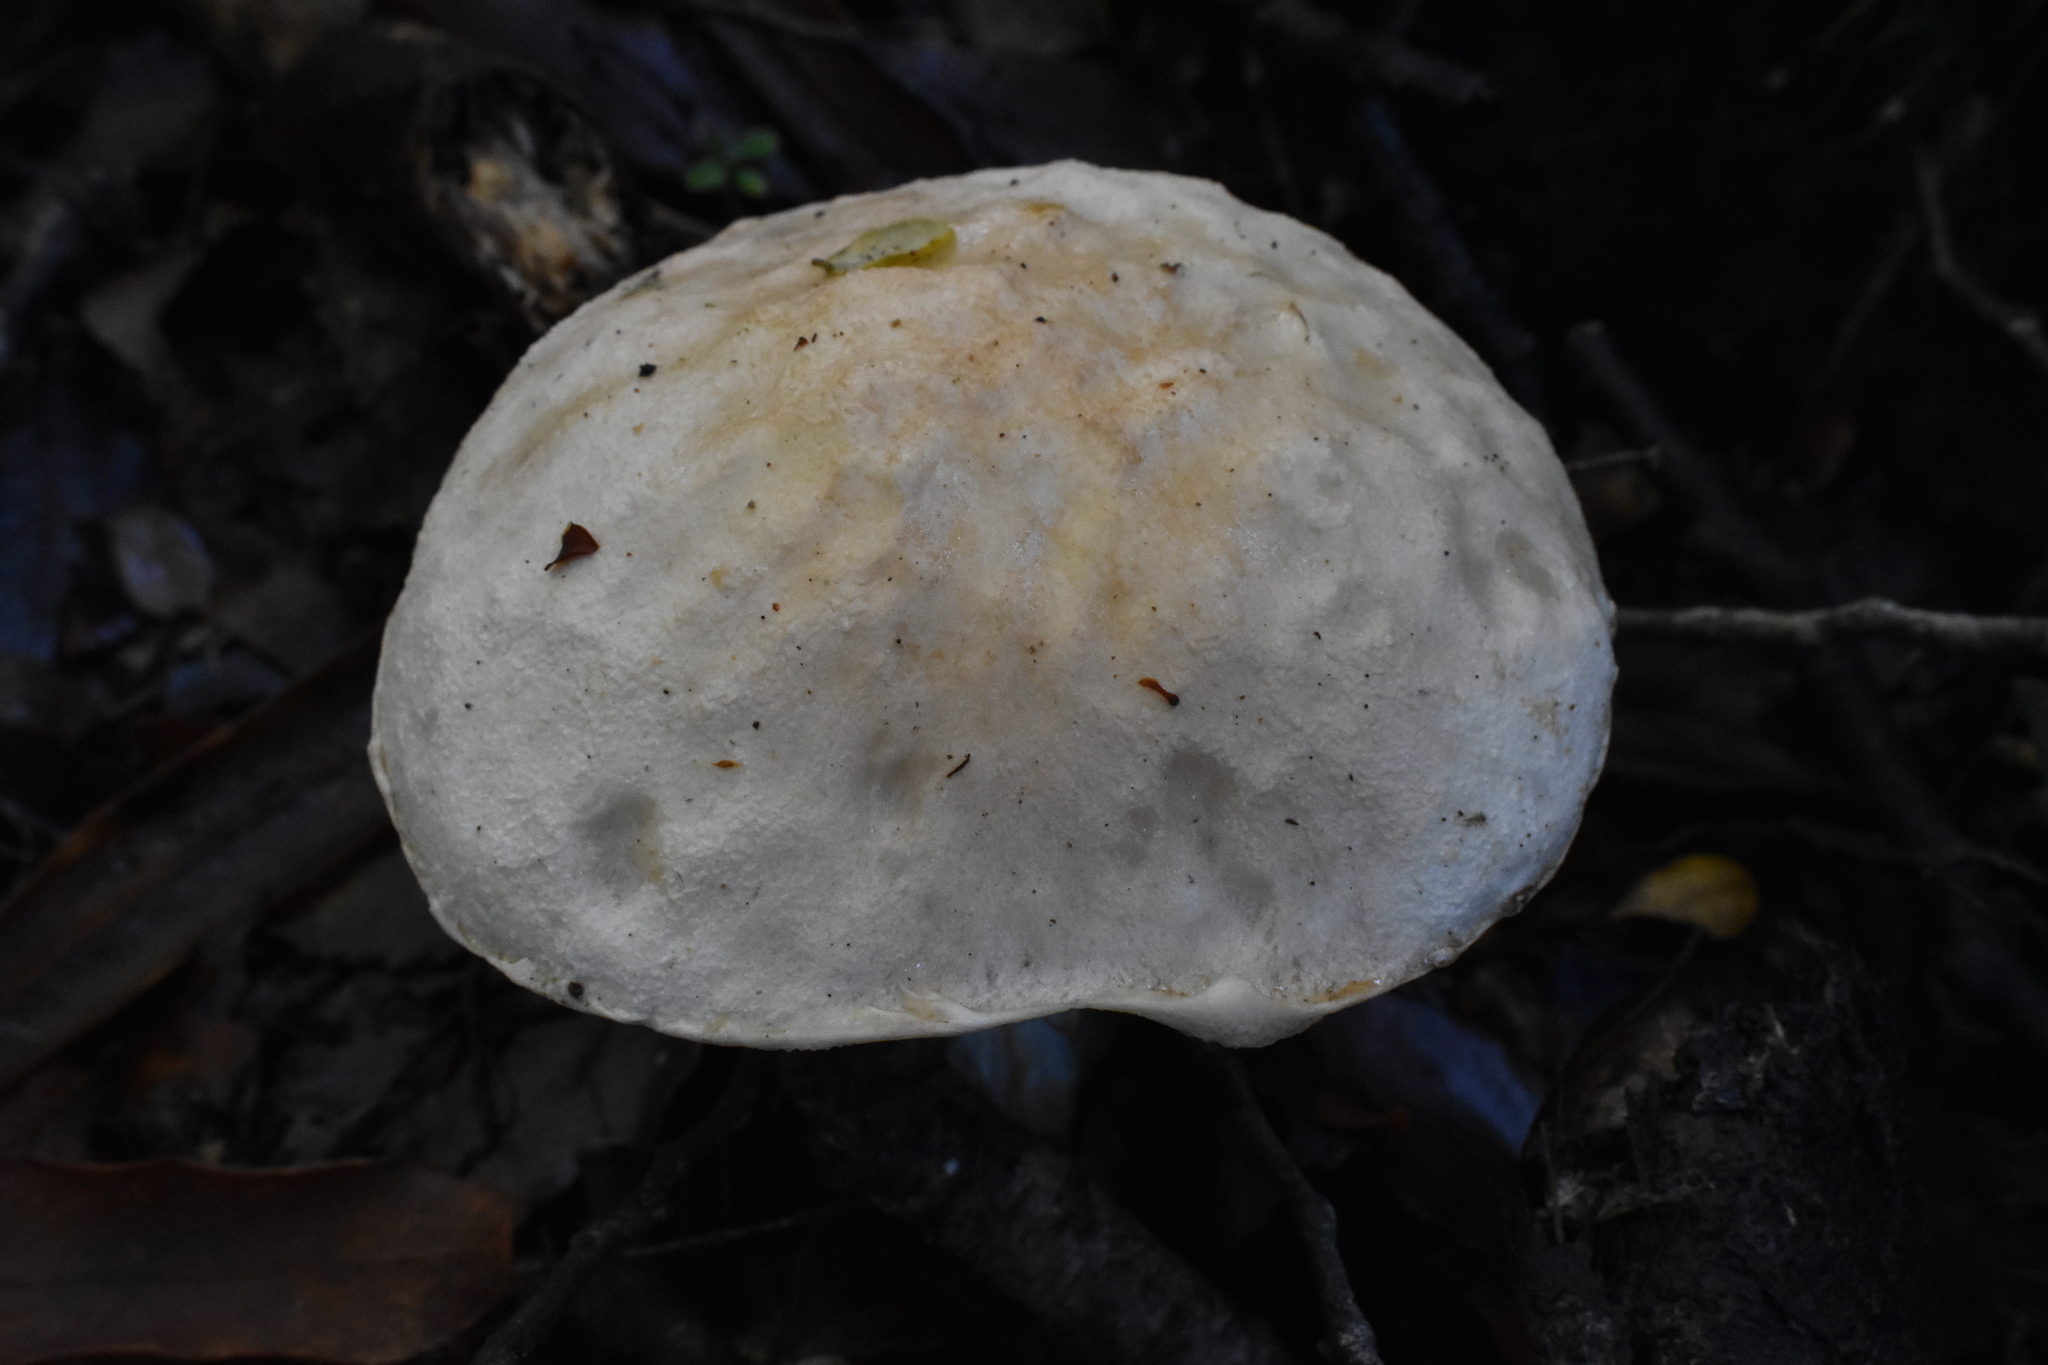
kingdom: Fungi
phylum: Basidiomycota
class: Agaricomycetes
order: Boletales
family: Boletaceae
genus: Fistulinella
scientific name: Fistulinella nivea
